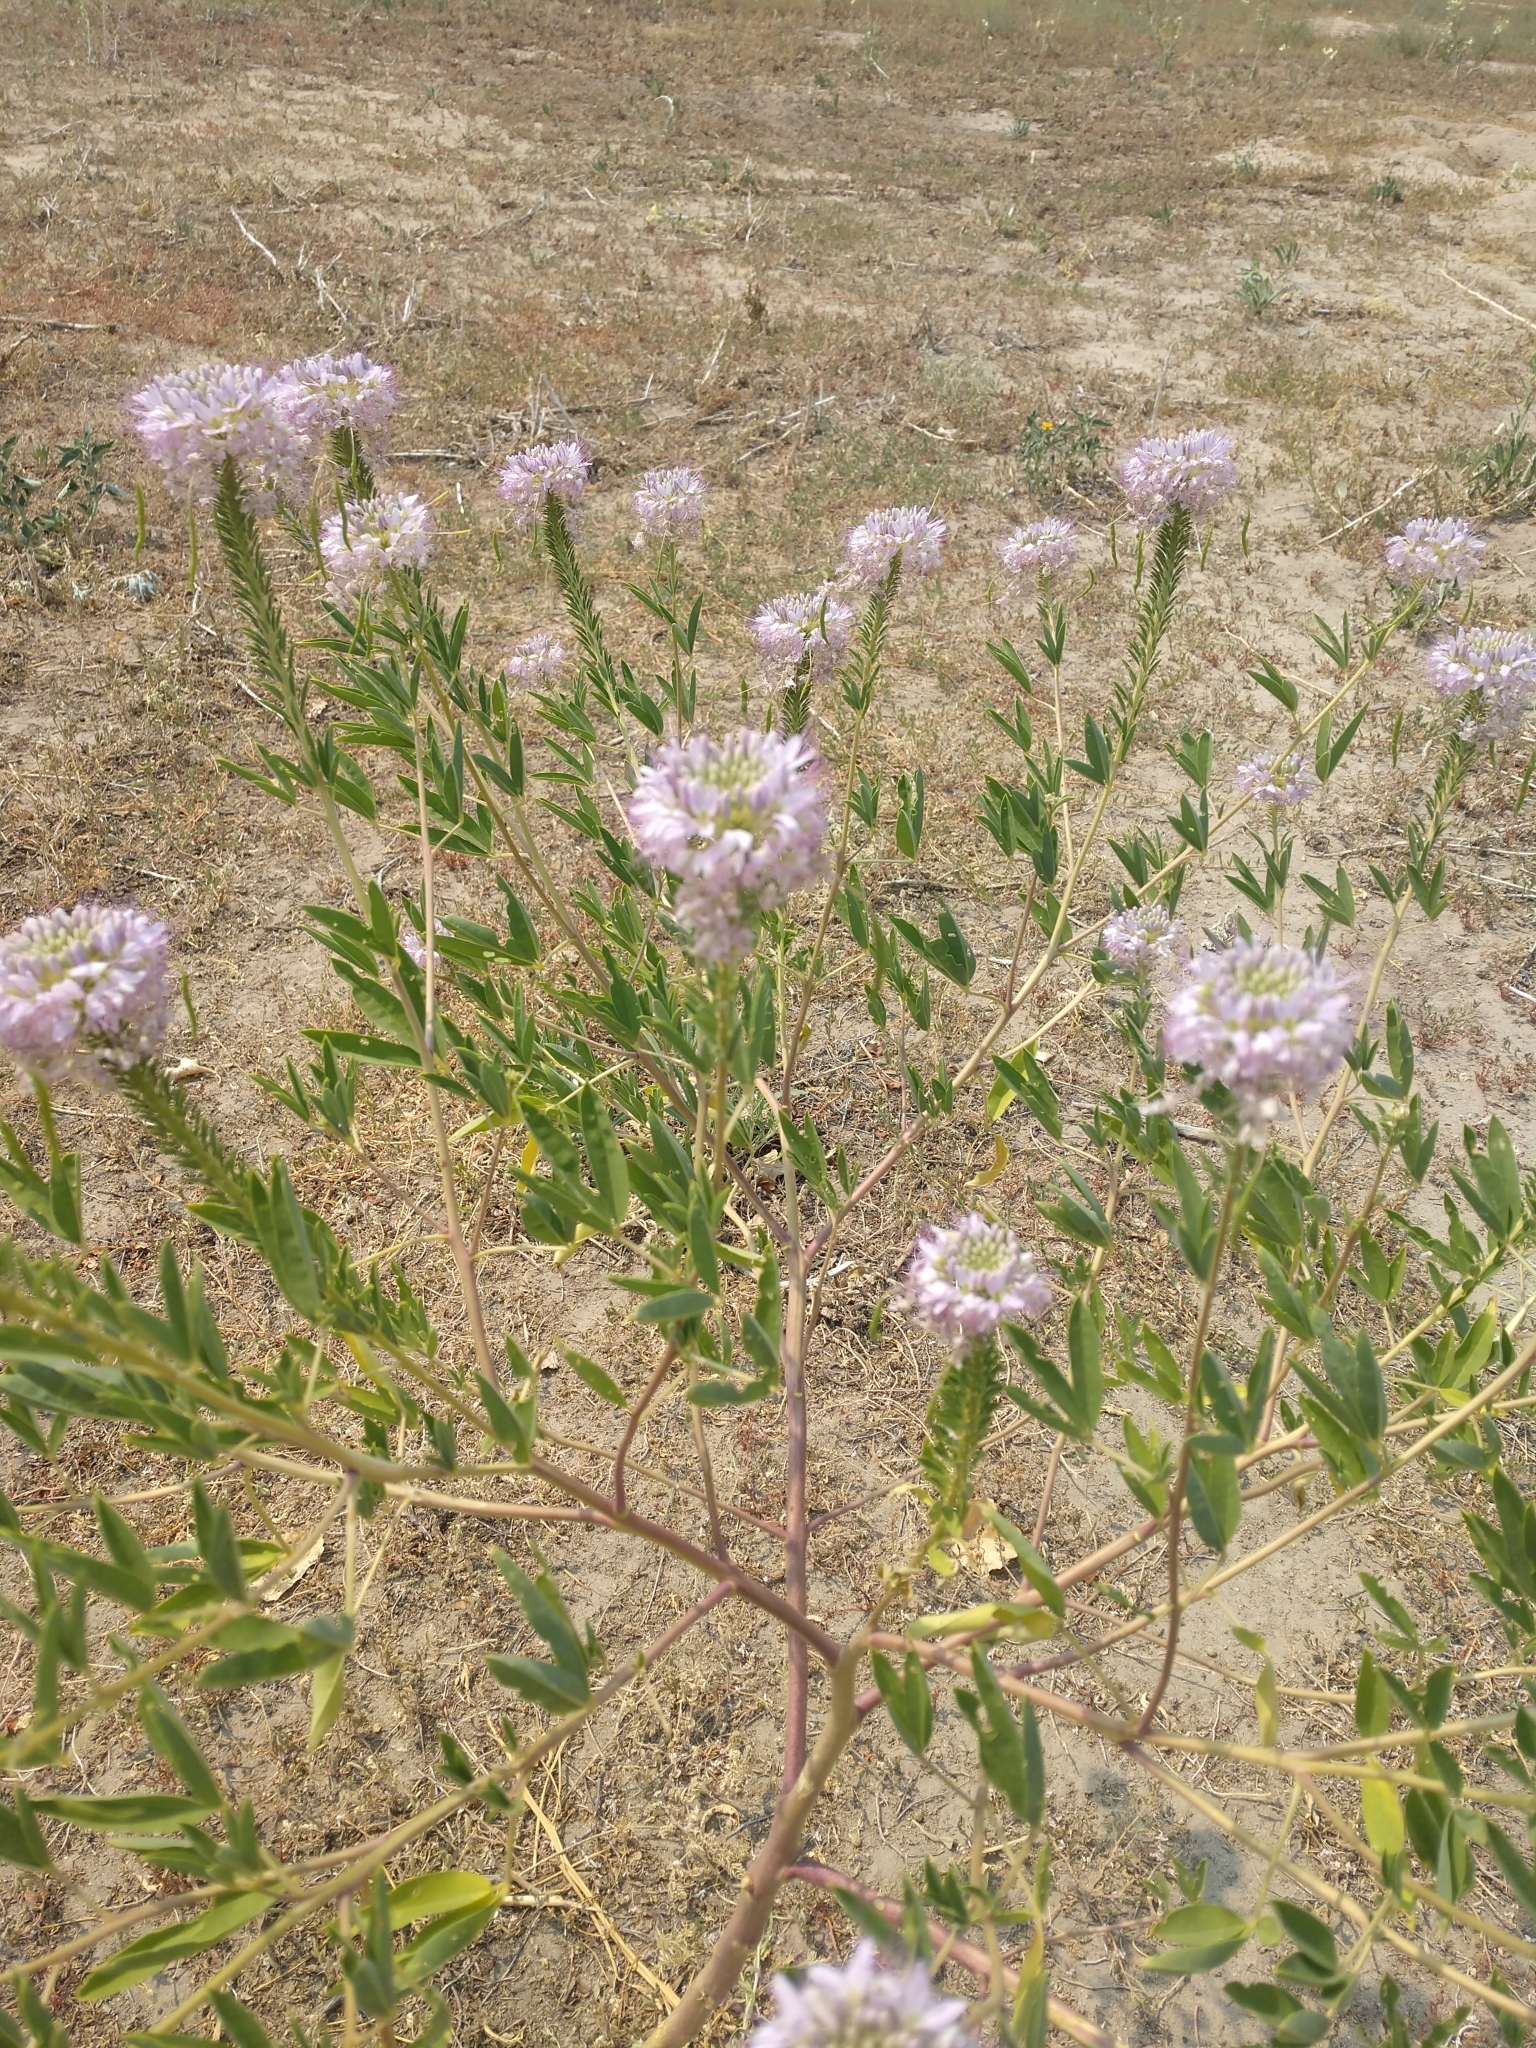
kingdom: Plantae
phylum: Tracheophyta
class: Magnoliopsida
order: Brassicales
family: Cleomaceae
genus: Cleomella
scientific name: Cleomella serrulata
